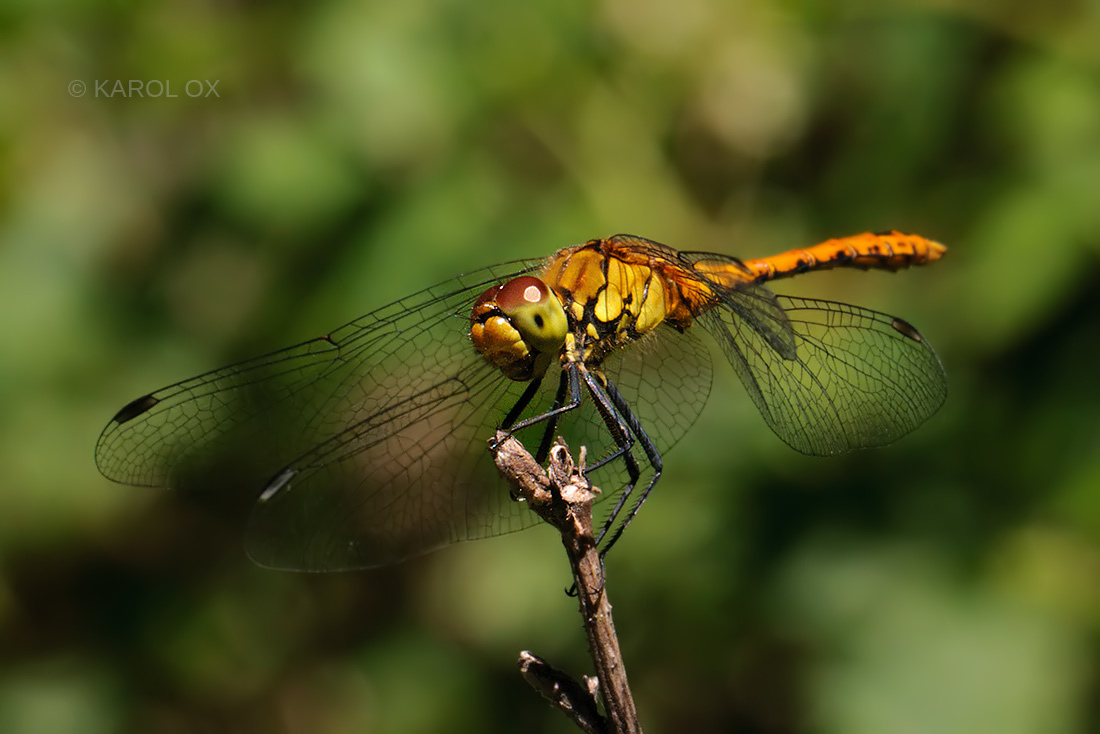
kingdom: Animalia
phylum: Arthropoda
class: Insecta
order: Odonata
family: Libellulidae
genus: Sympetrum
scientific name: Sympetrum sanguineum
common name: Ruddy darter
